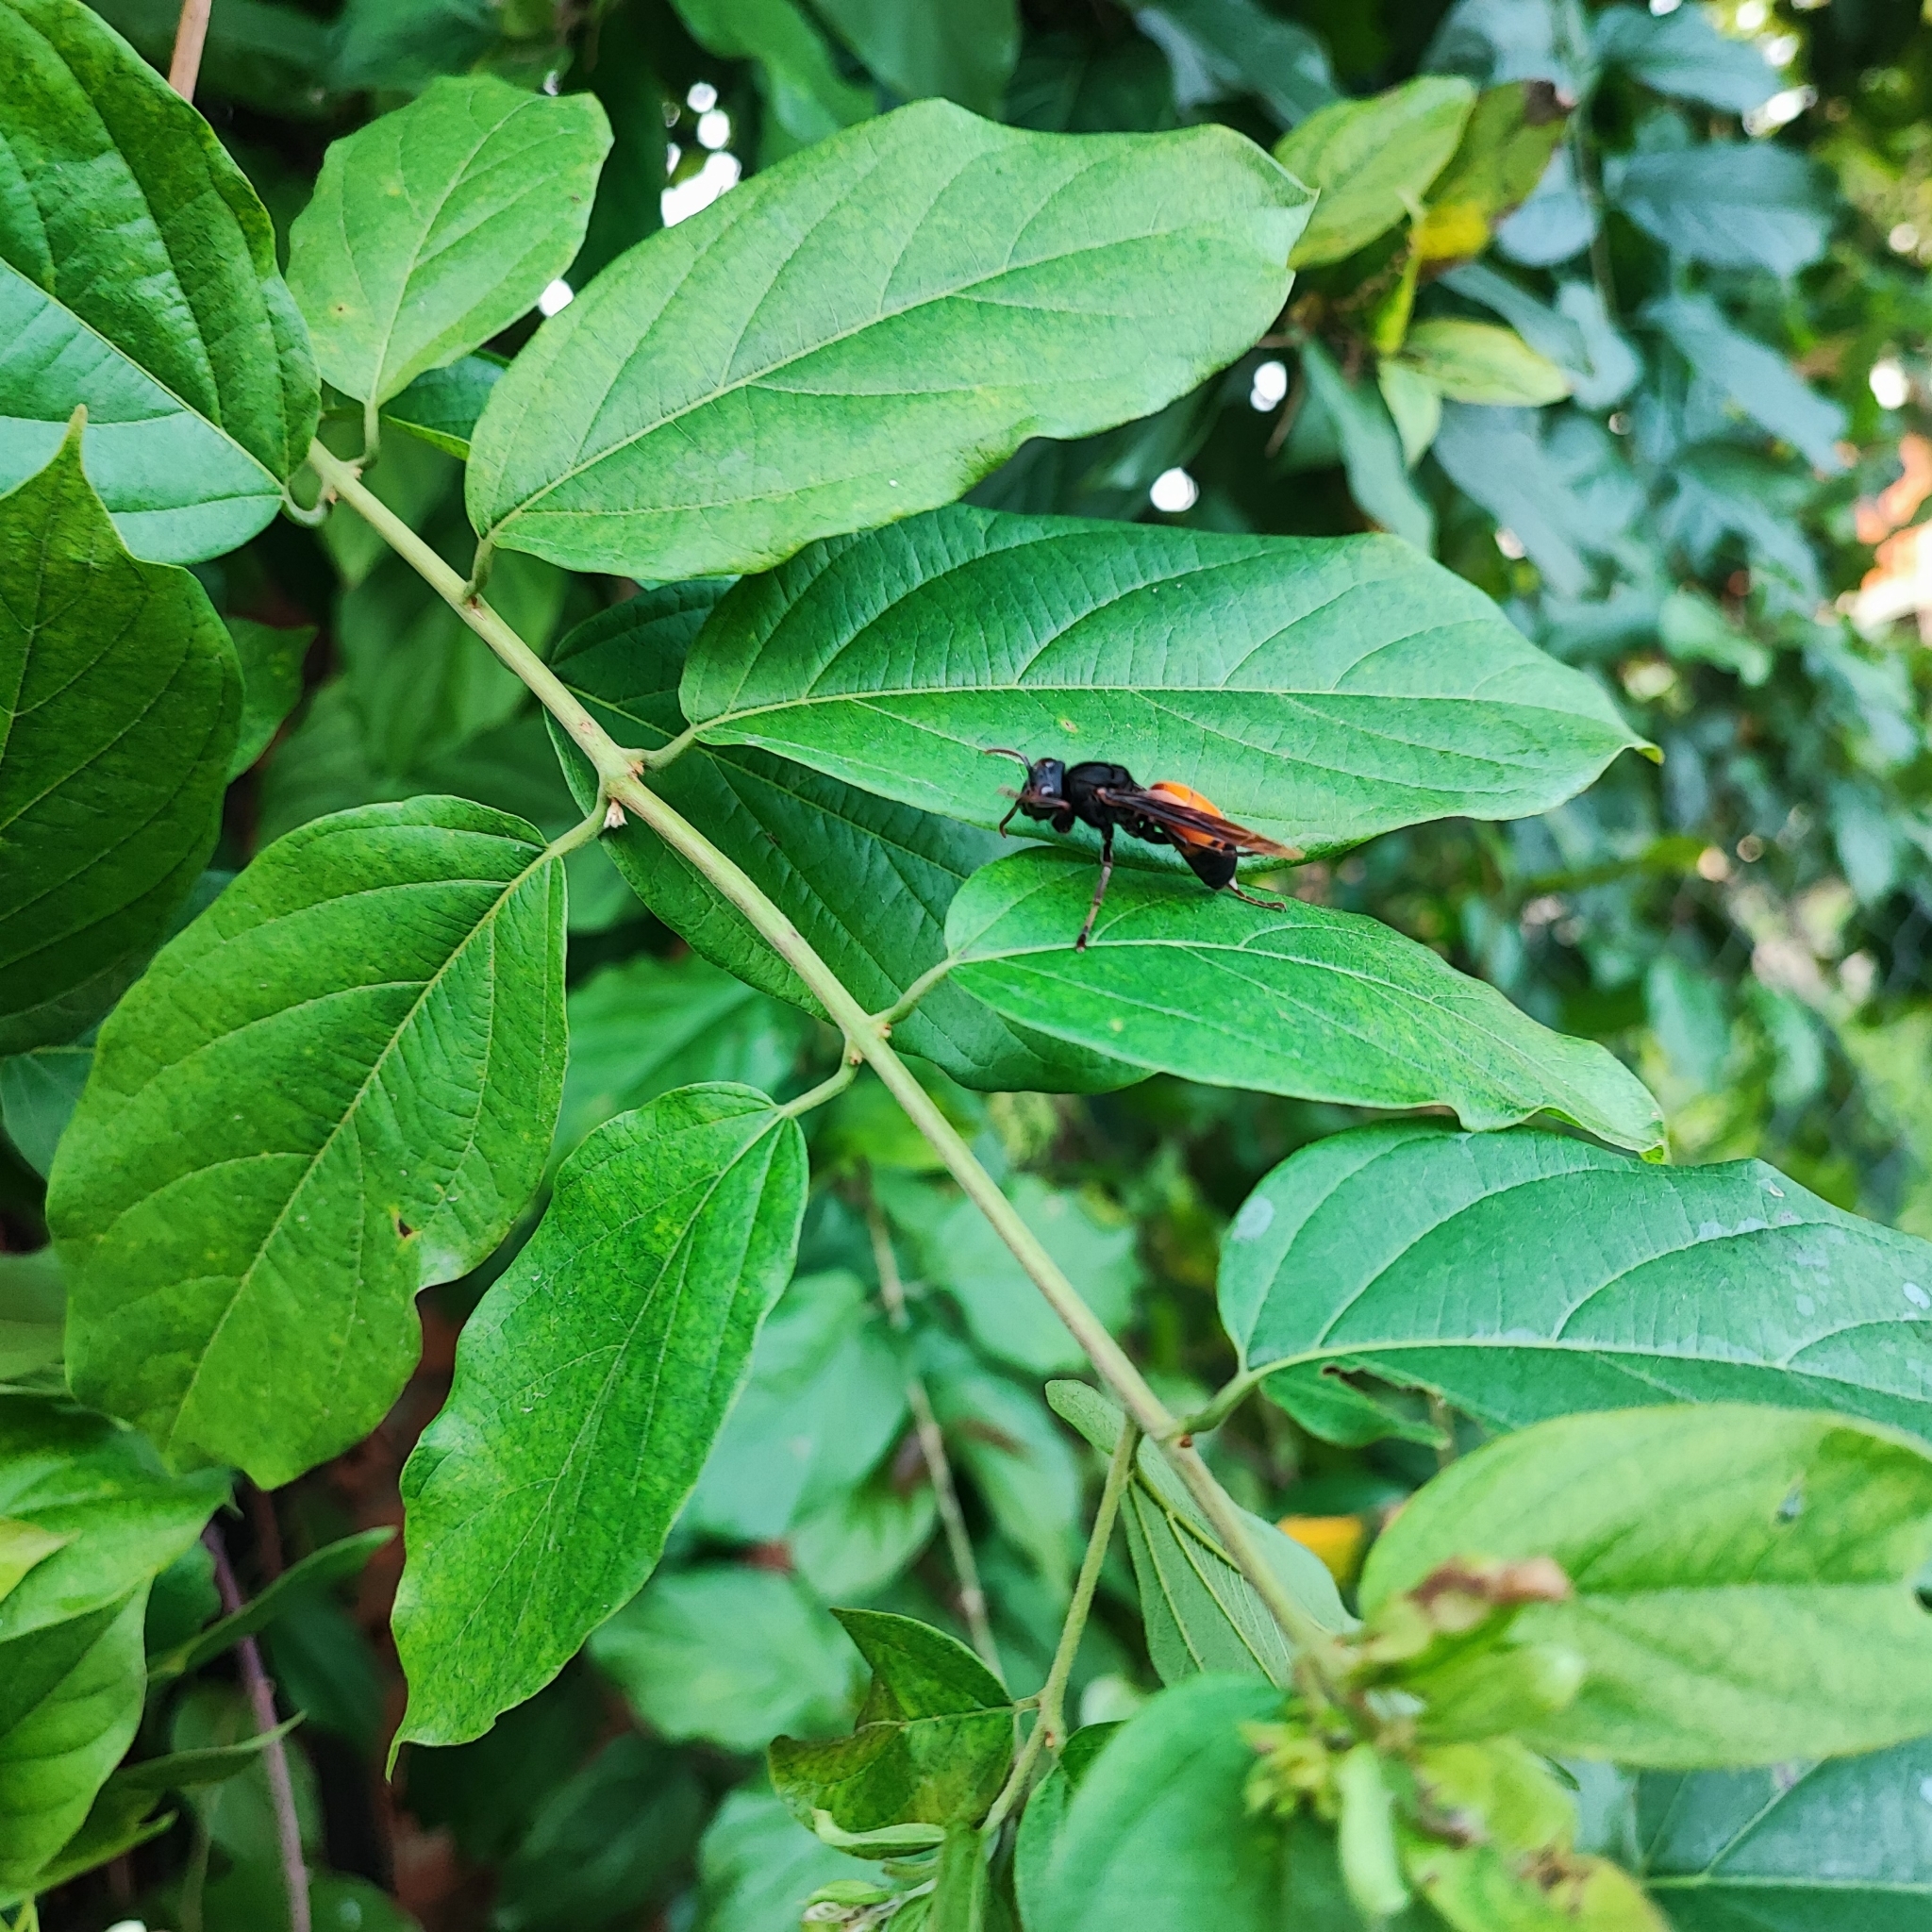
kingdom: Animalia
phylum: Arthropoda
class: Insecta
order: Hymenoptera
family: Vespidae
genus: Vespa
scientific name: Vespa affinis
